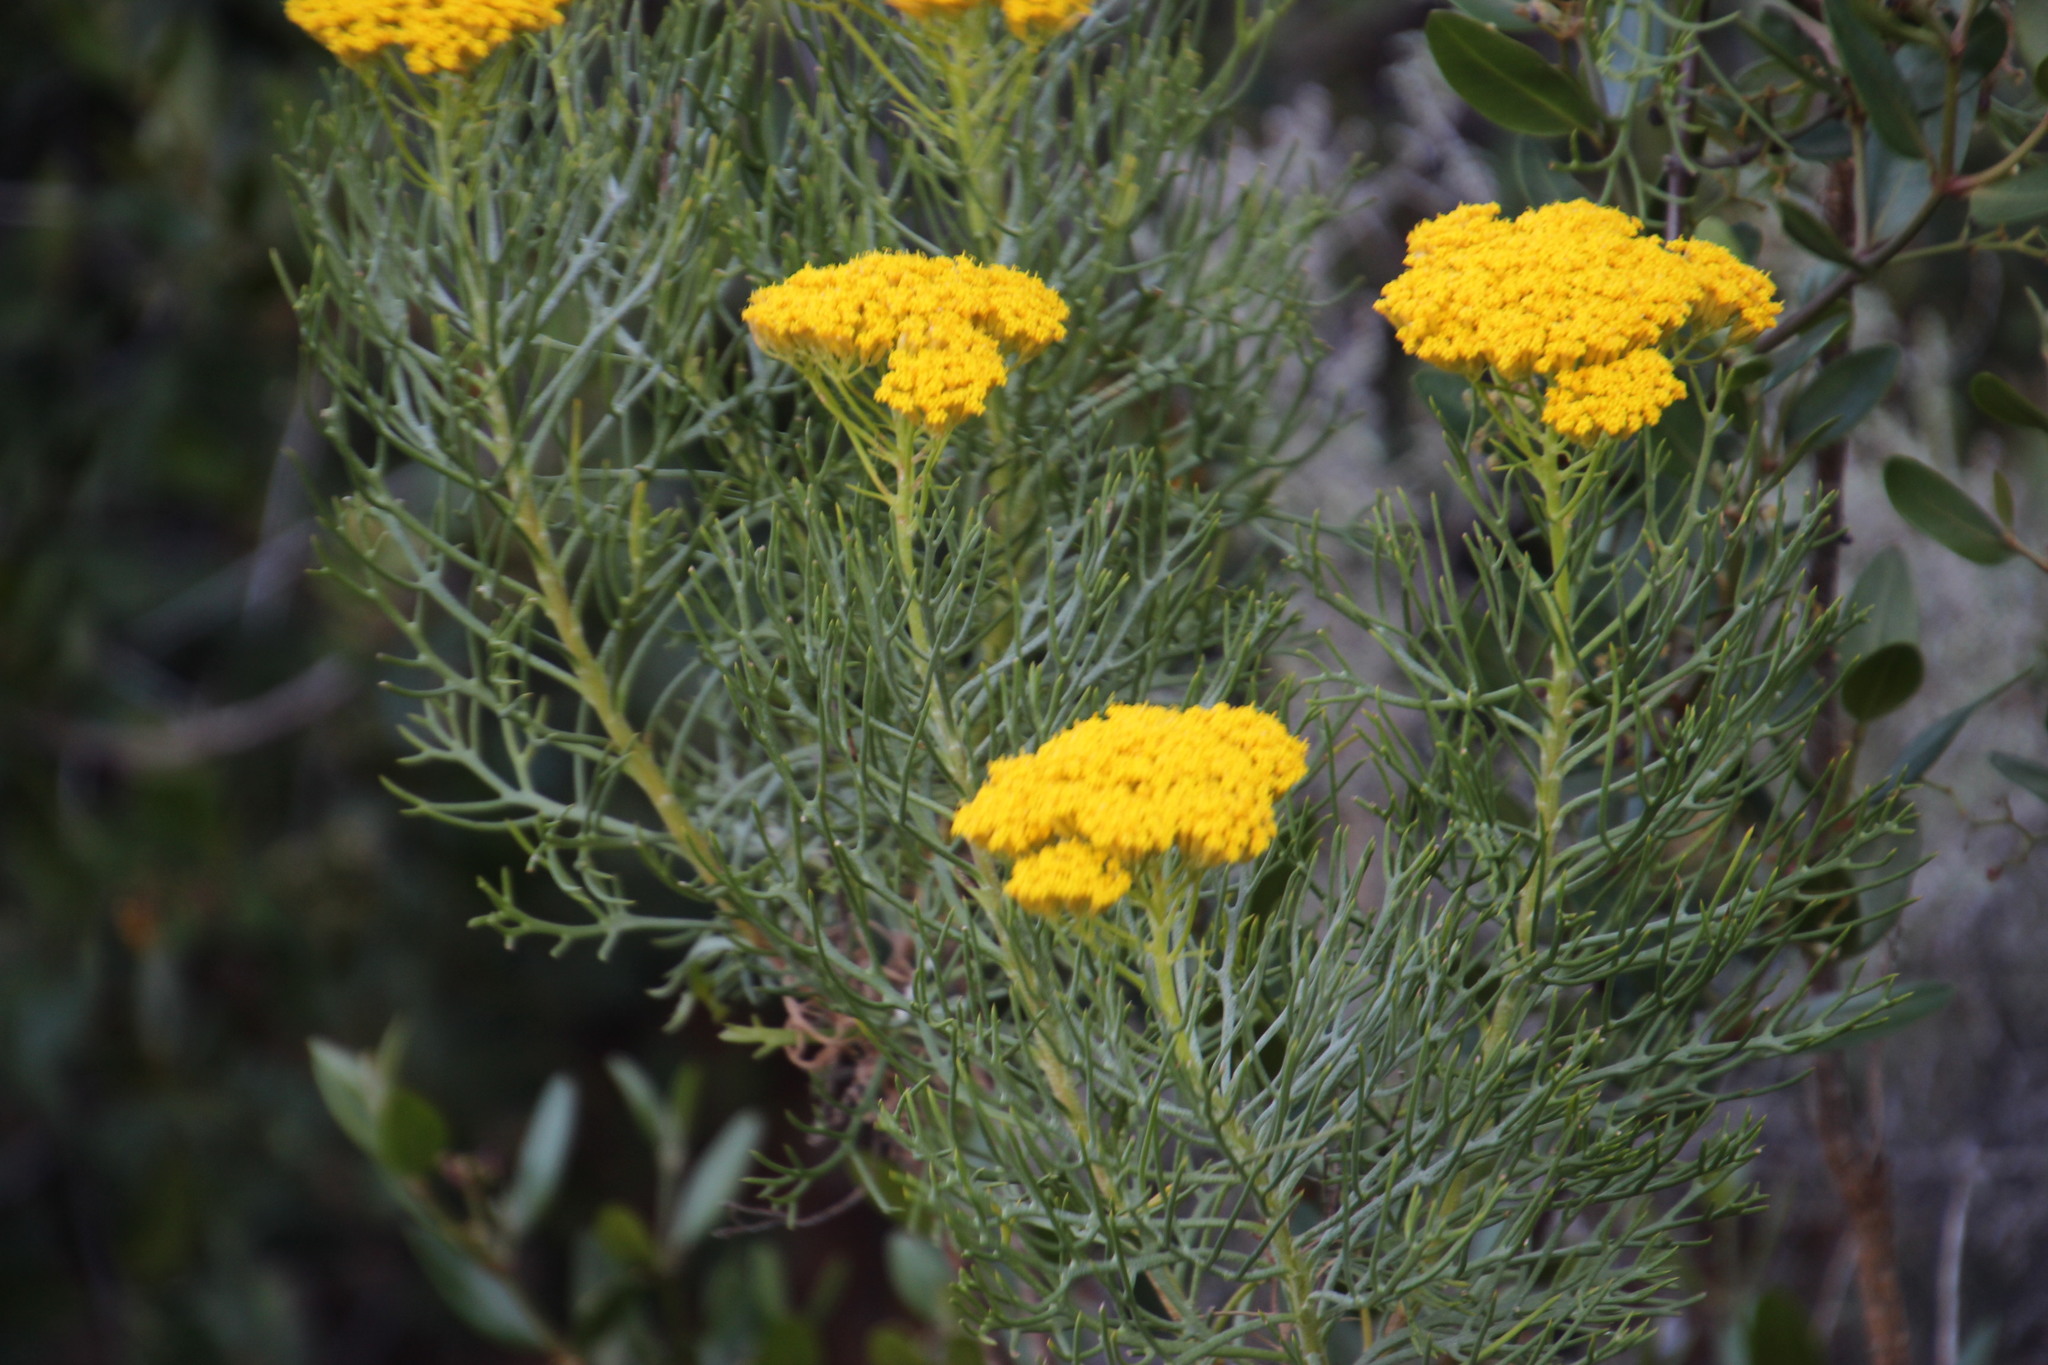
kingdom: Plantae
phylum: Tracheophyta
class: Magnoliopsida
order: Asterales
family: Asteraceae
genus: Hymenolepis
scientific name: Hymenolepis crithmifolia
